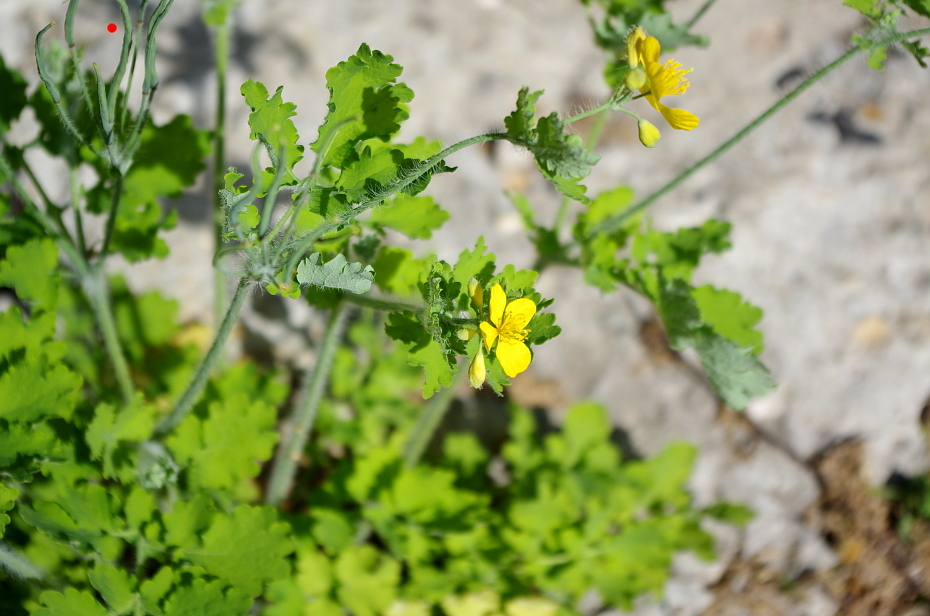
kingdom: Plantae
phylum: Tracheophyta
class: Magnoliopsida
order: Ranunculales
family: Papaveraceae
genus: Chelidonium
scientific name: Chelidonium majus
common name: Greater celandine
